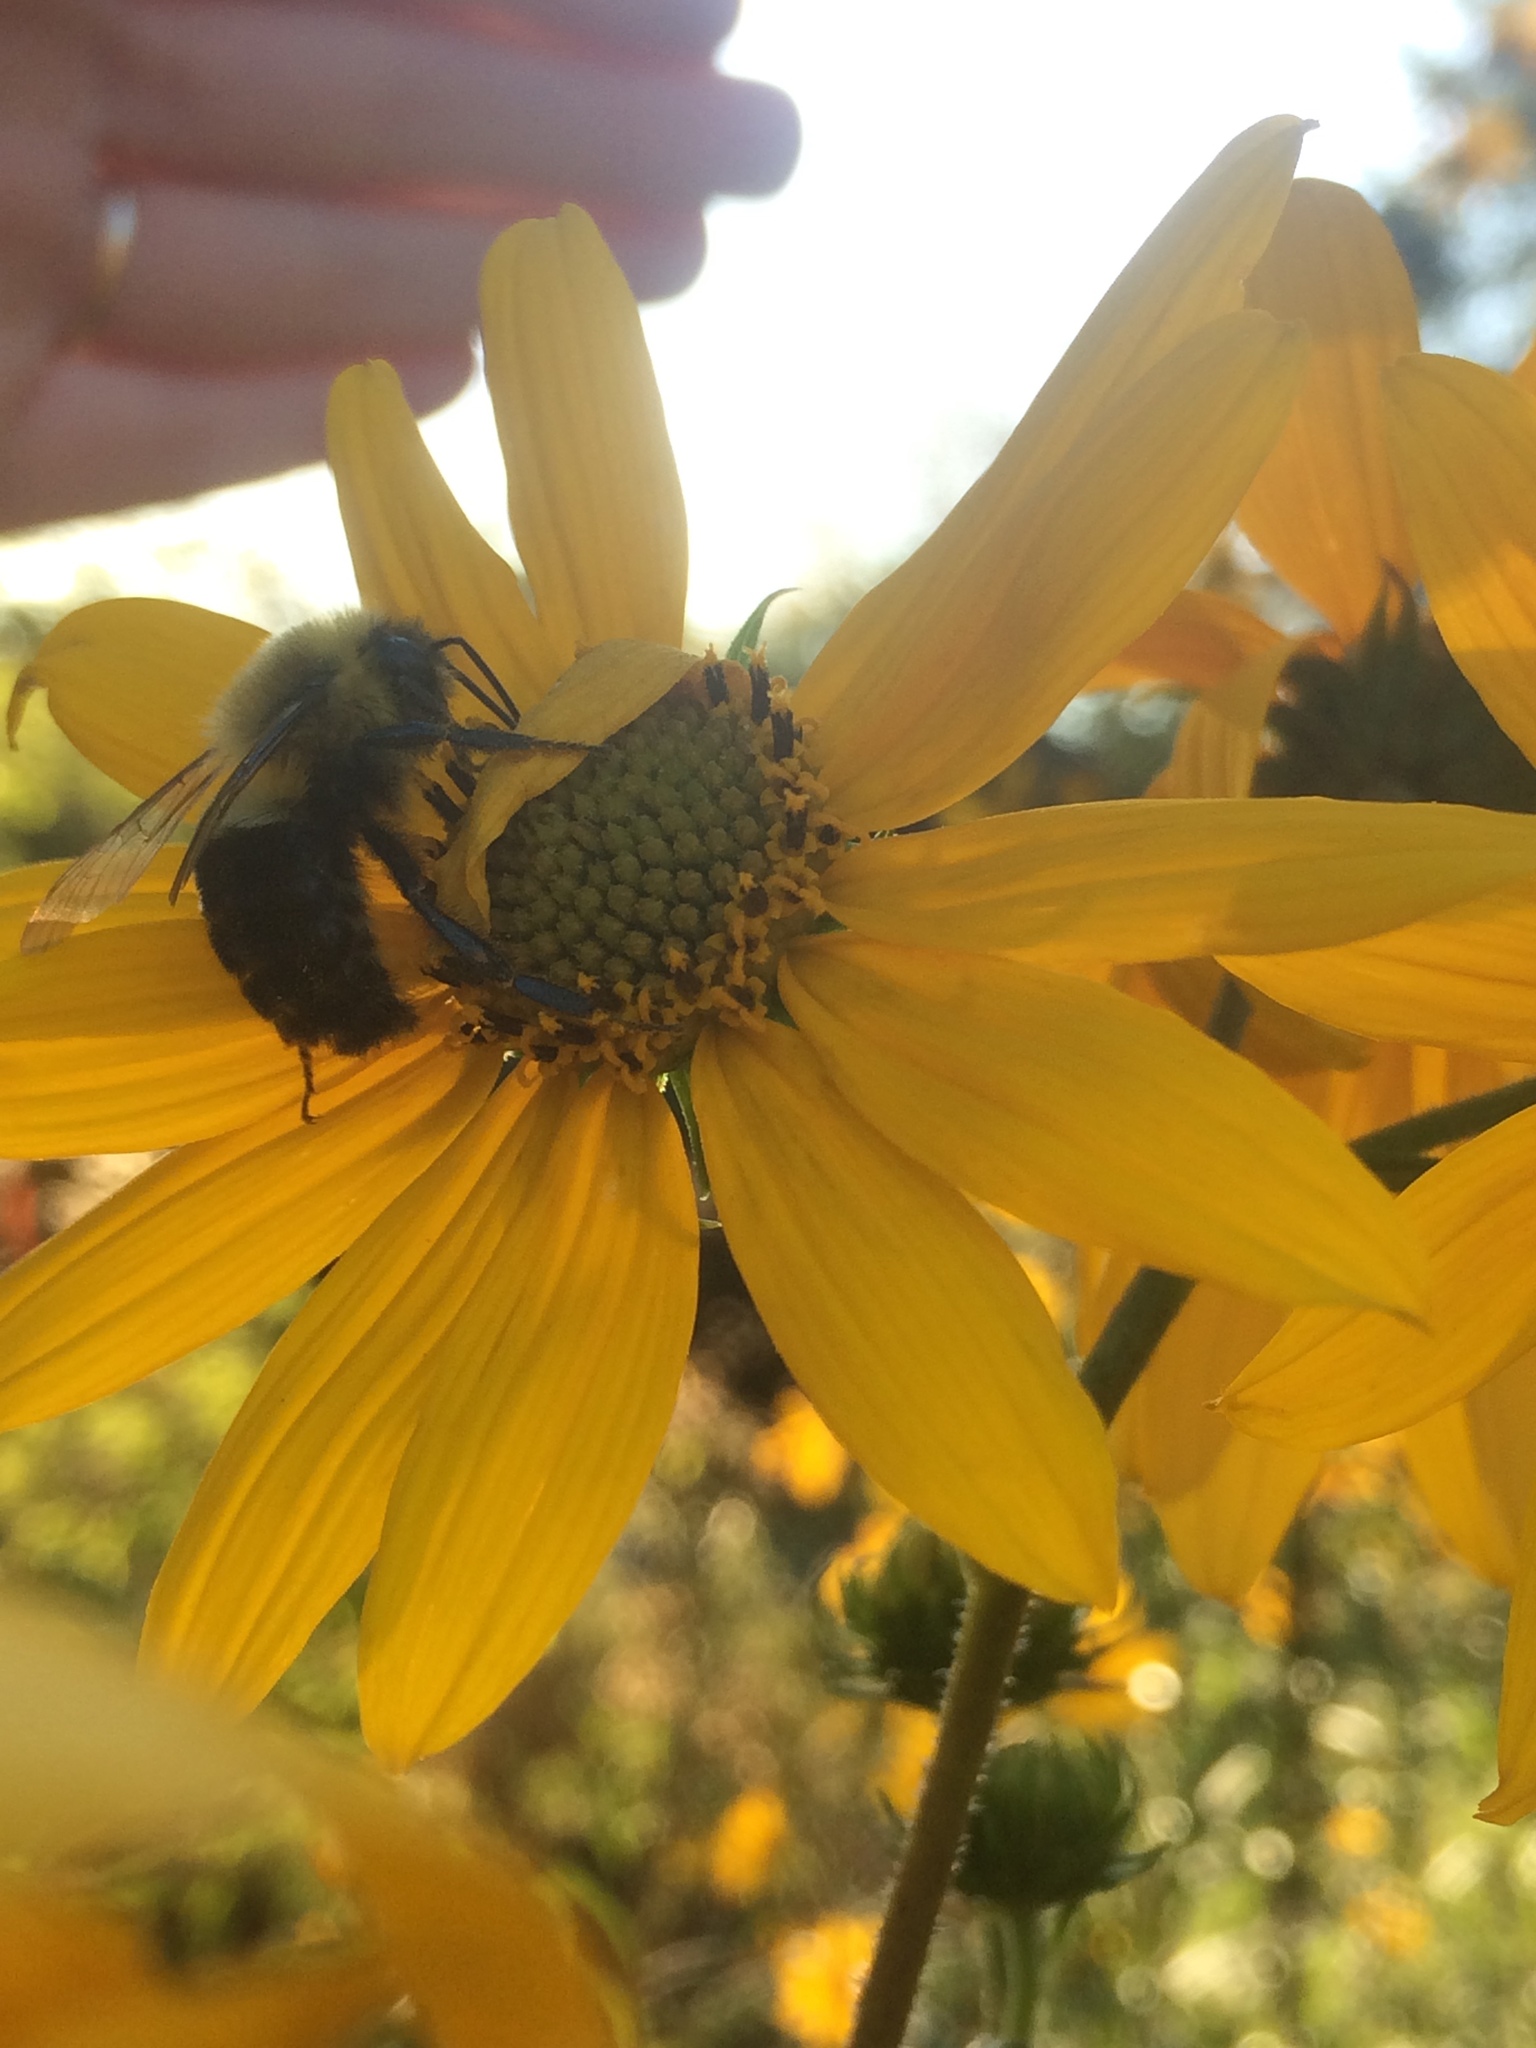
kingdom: Animalia
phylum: Arthropoda
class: Insecta
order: Hymenoptera
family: Apidae
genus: Bombus
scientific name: Bombus impatiens
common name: Common eastern bumble bee
